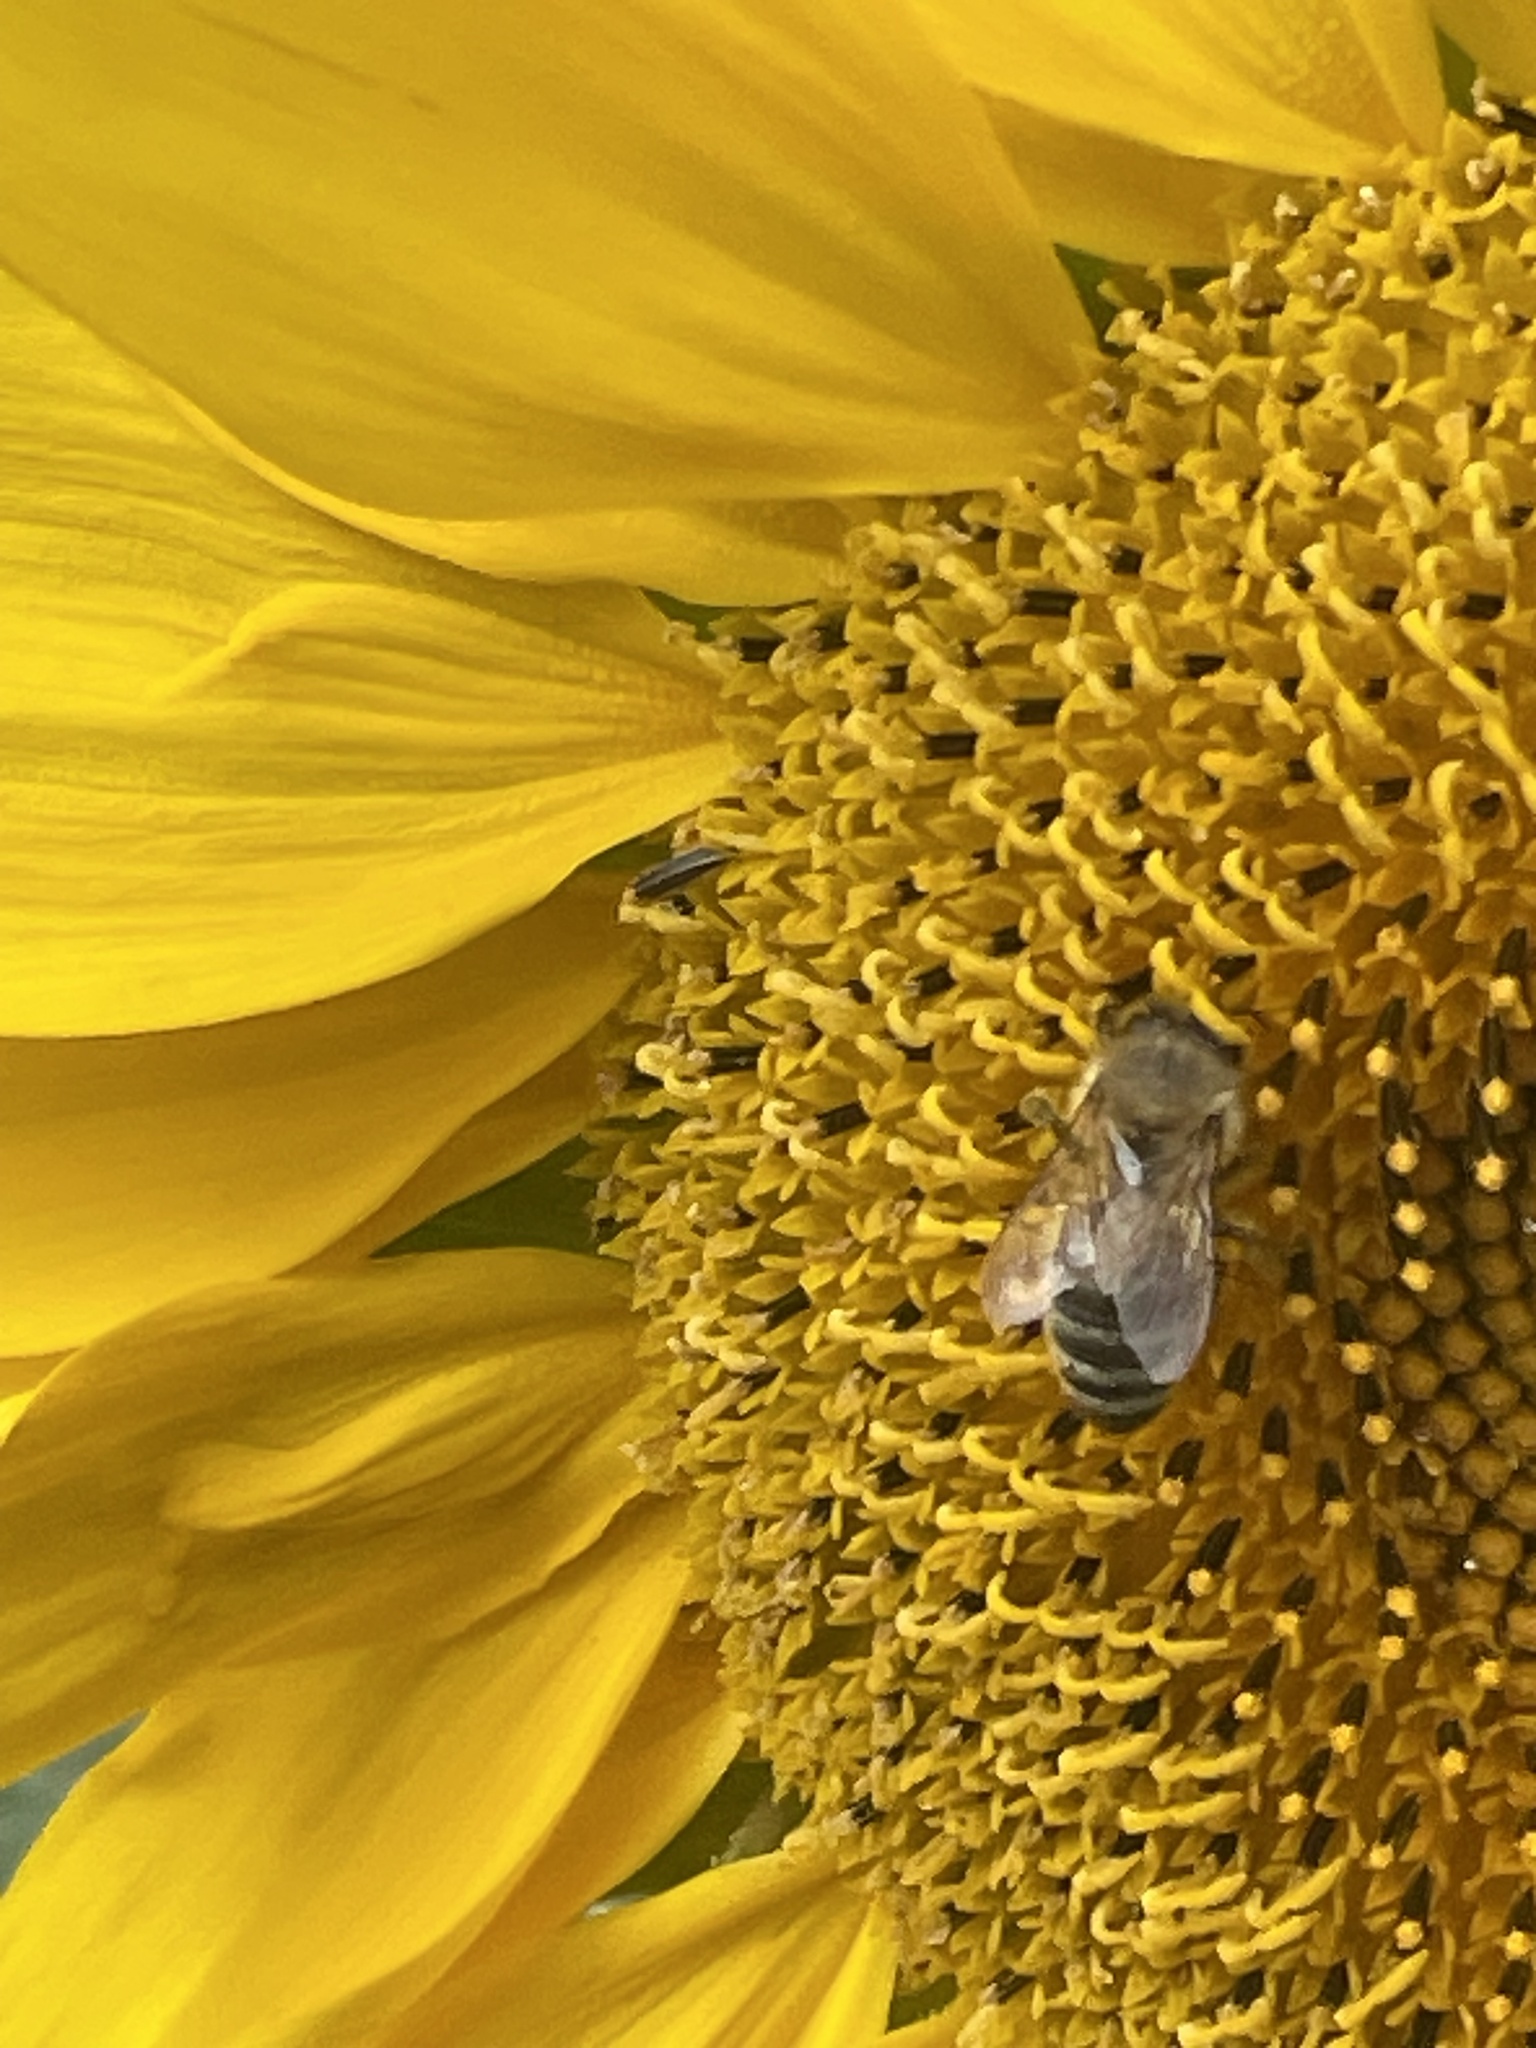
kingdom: Animalia
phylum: Arthropoda
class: Insecta
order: Hymenoptera
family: Apidae
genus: Apis
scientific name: Apis mellifera
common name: Honey bee
